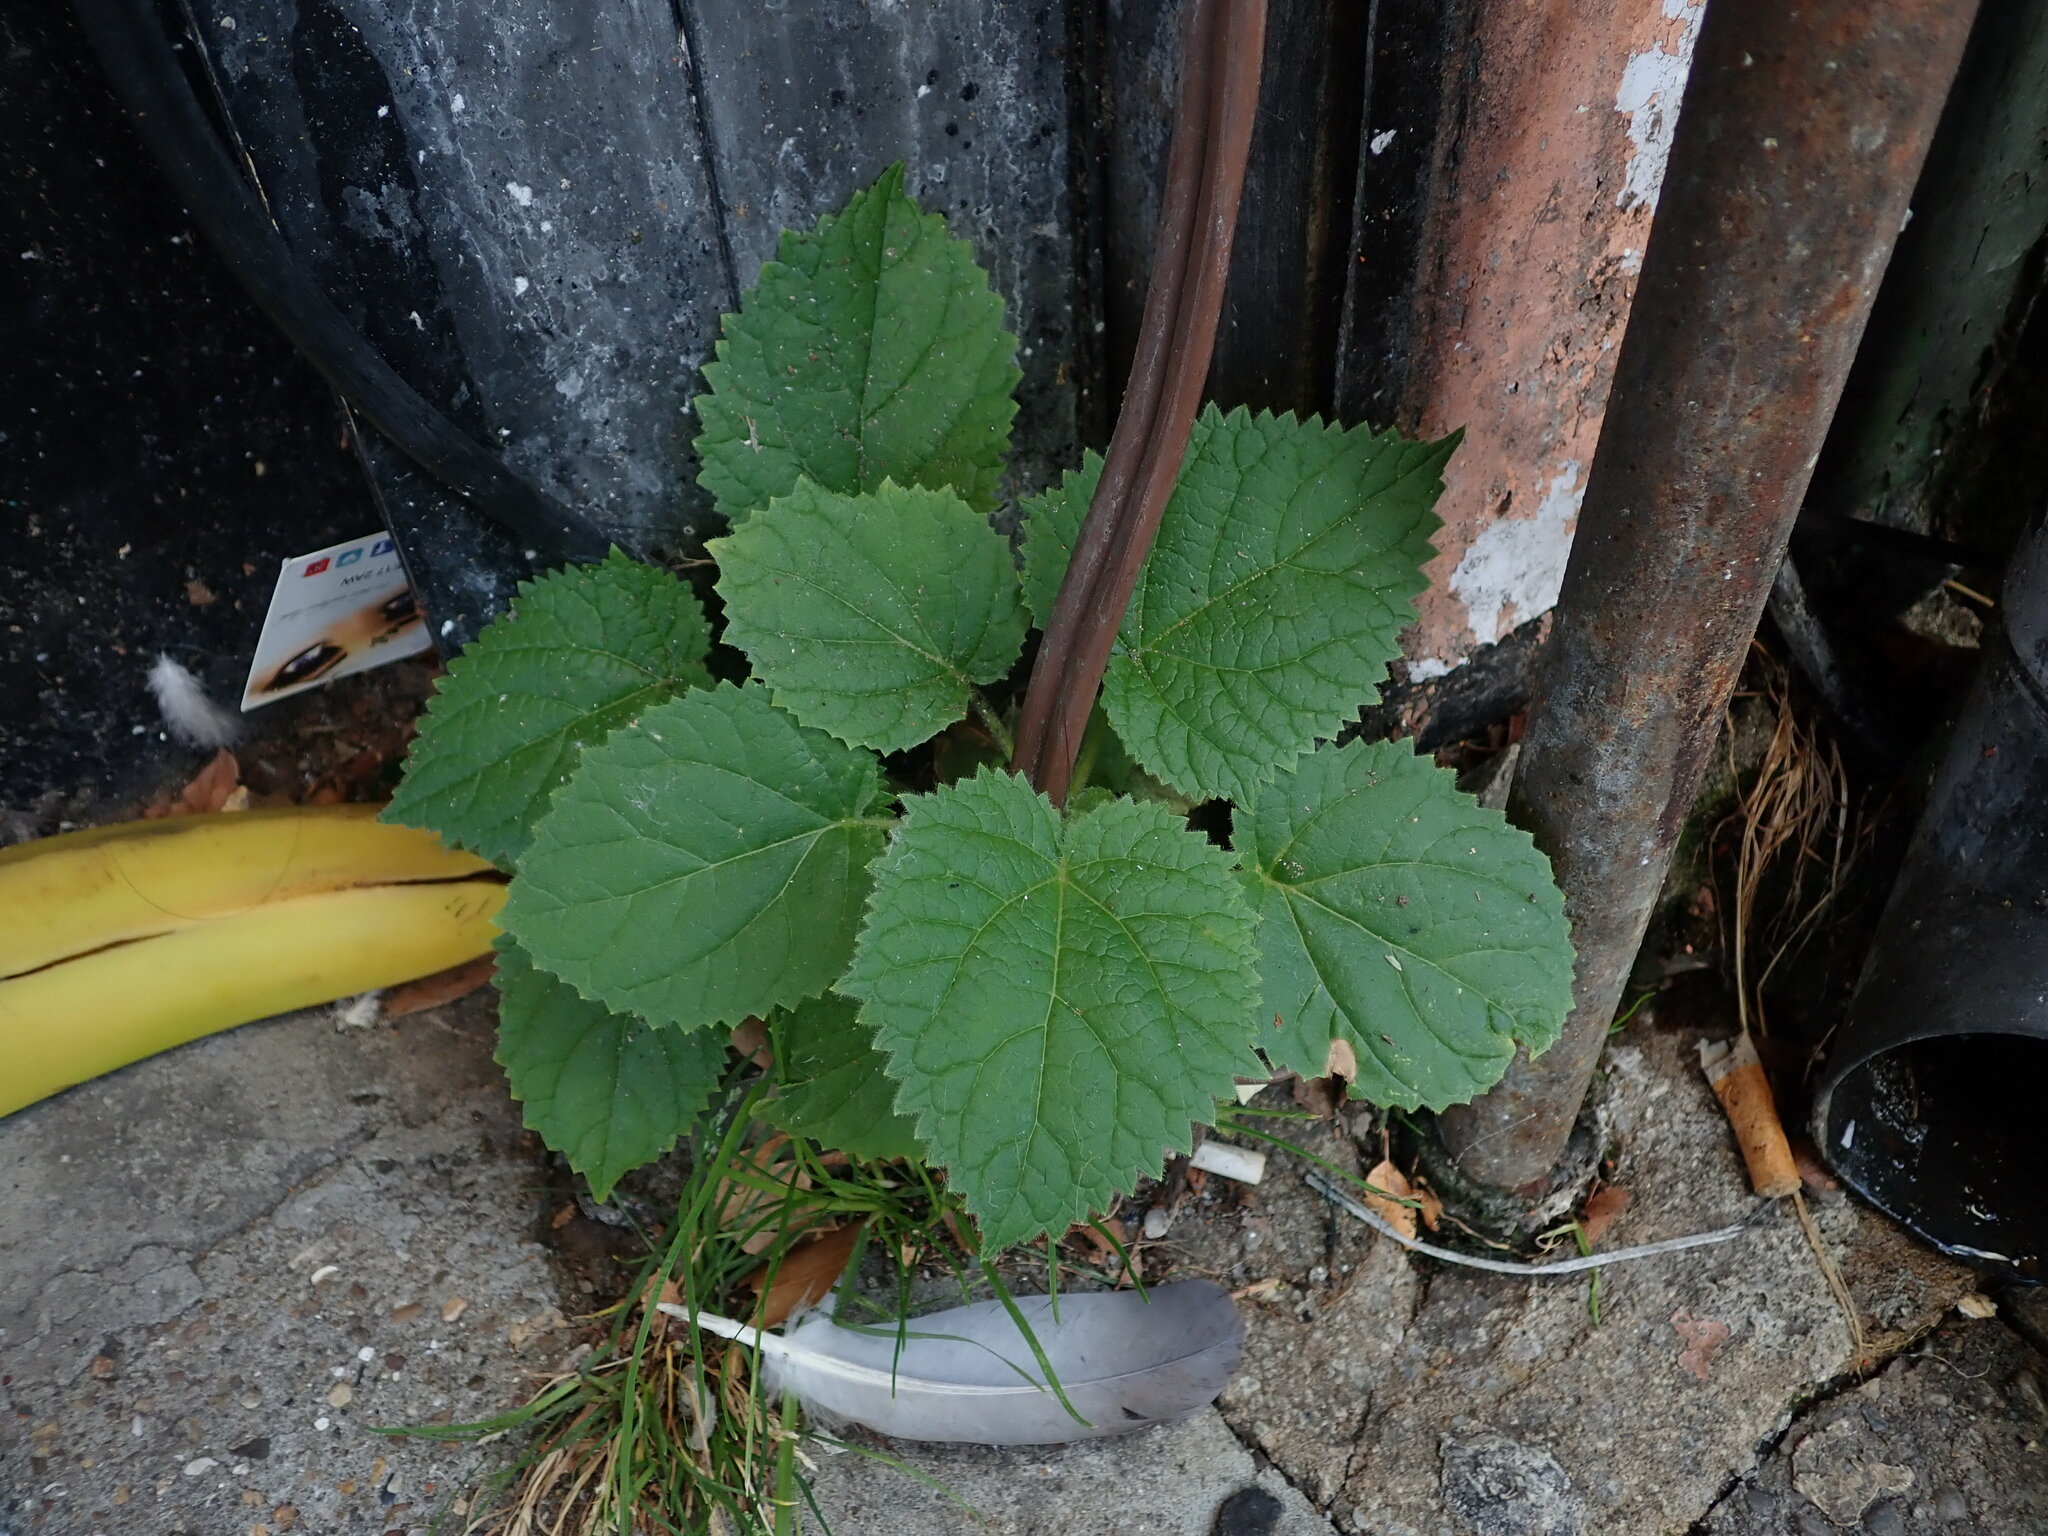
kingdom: Plantae
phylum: Tracheophyta
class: Magnoliopsida
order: Lamiales
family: Paulowniaceae
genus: Paulownia
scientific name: Paulownia tomentosa
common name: Foxglove-tree
